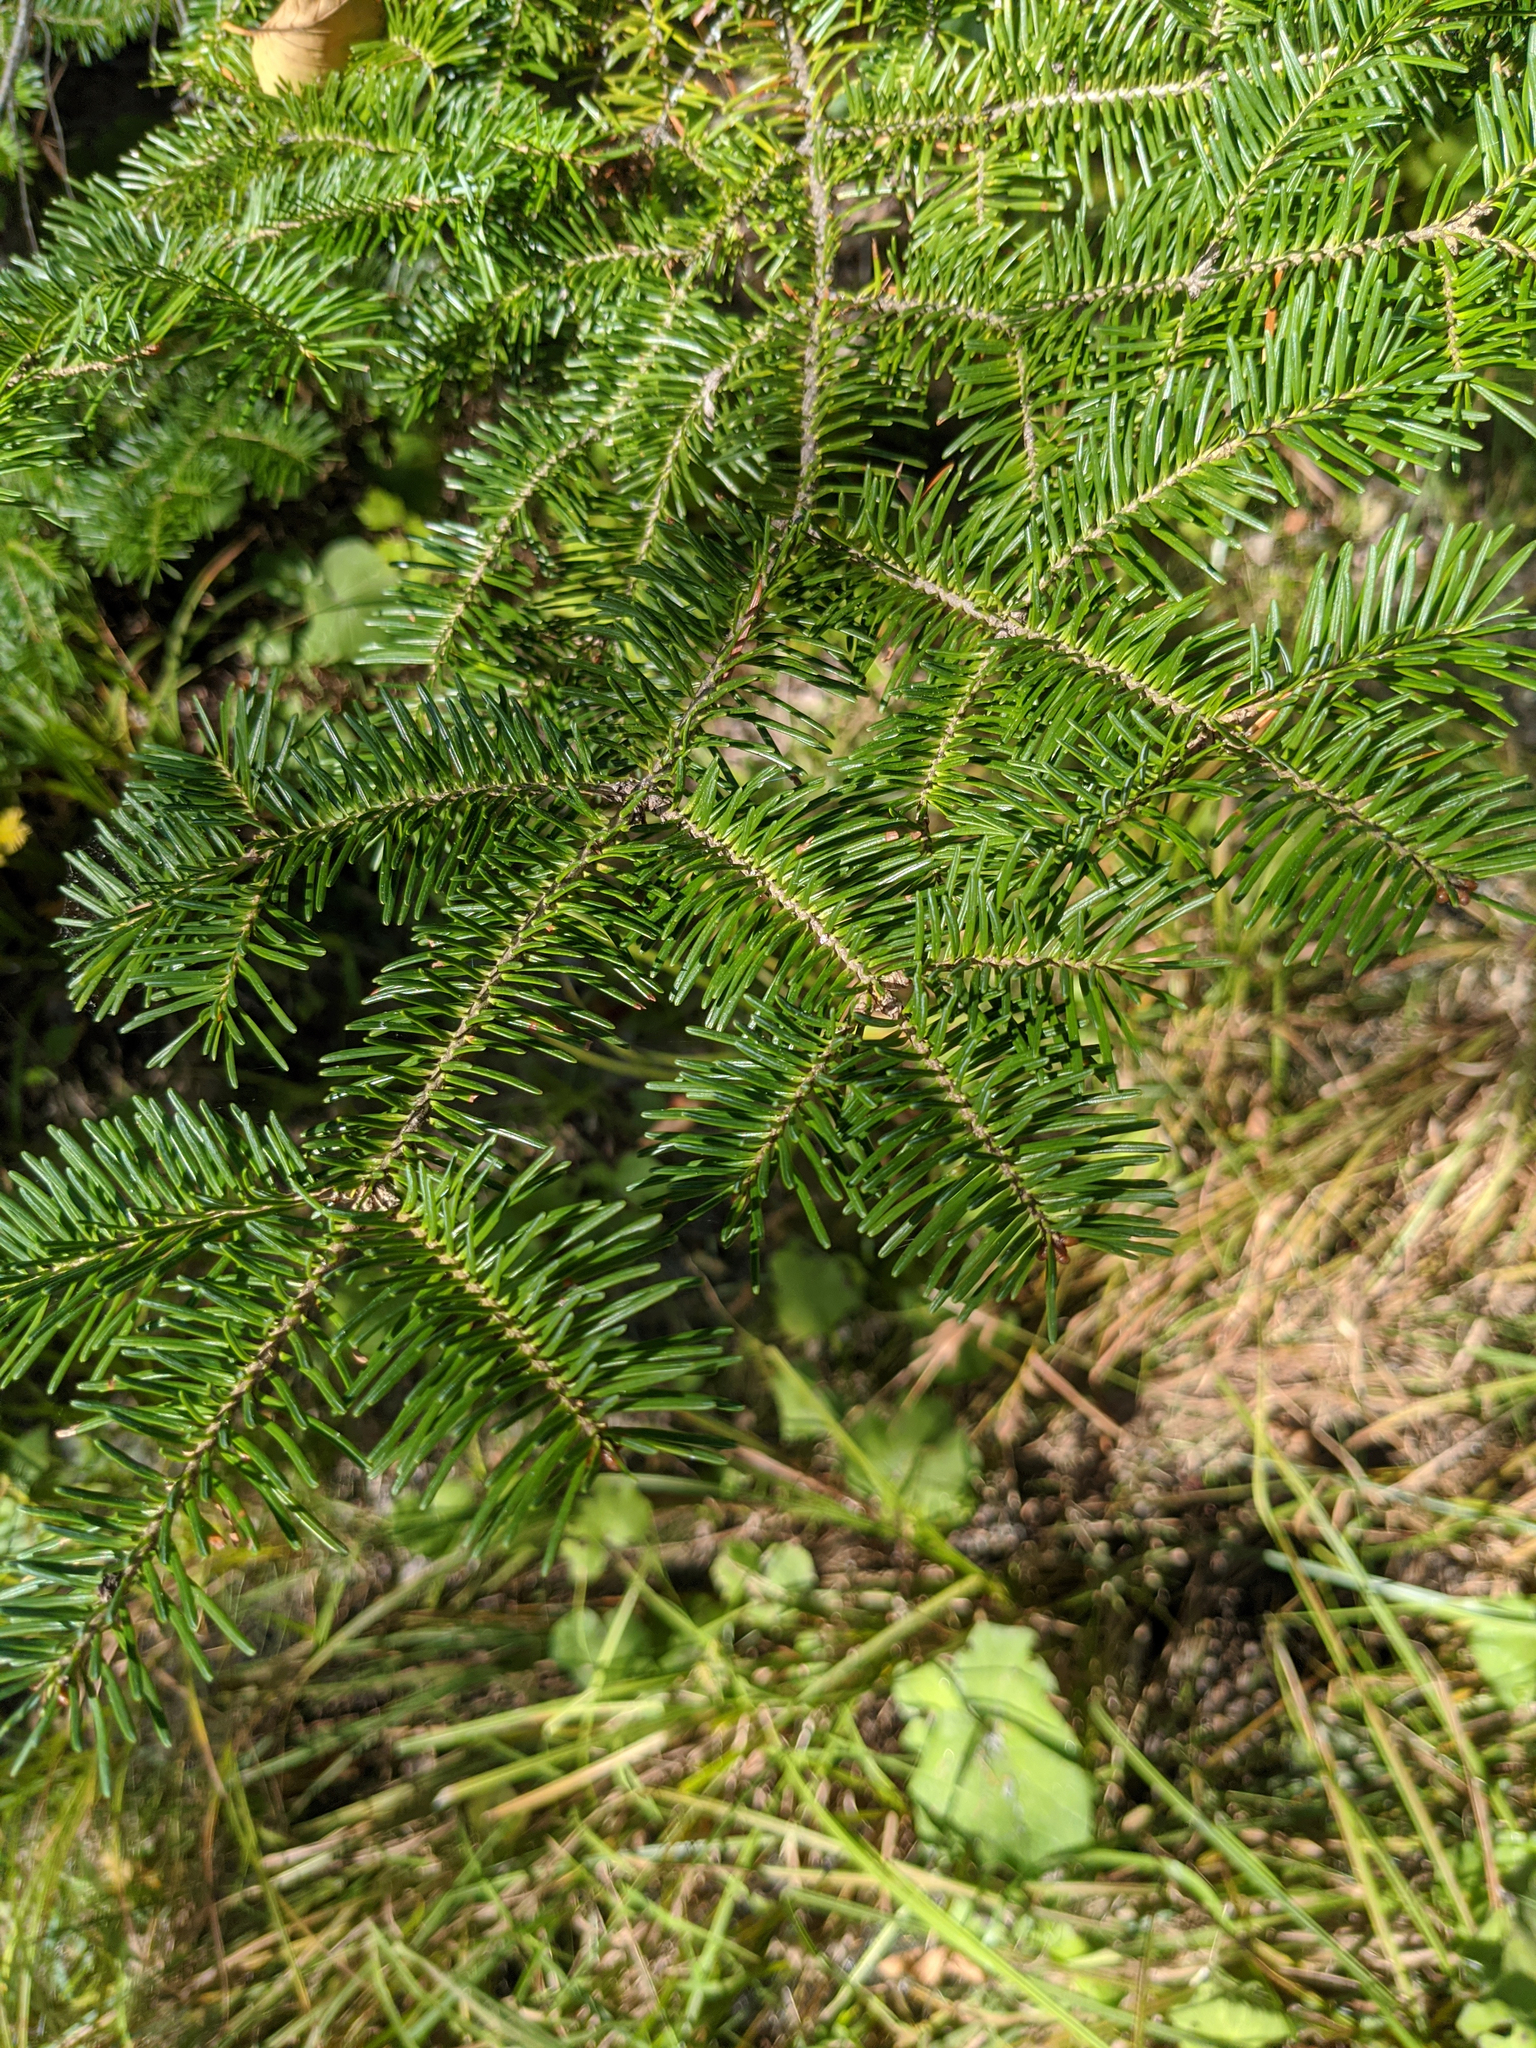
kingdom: Plantae
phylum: Tracheophyta
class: Pinopsida
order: Pinales
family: Pinaceae
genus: Abies
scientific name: Abies balsamea
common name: Balsam fir
